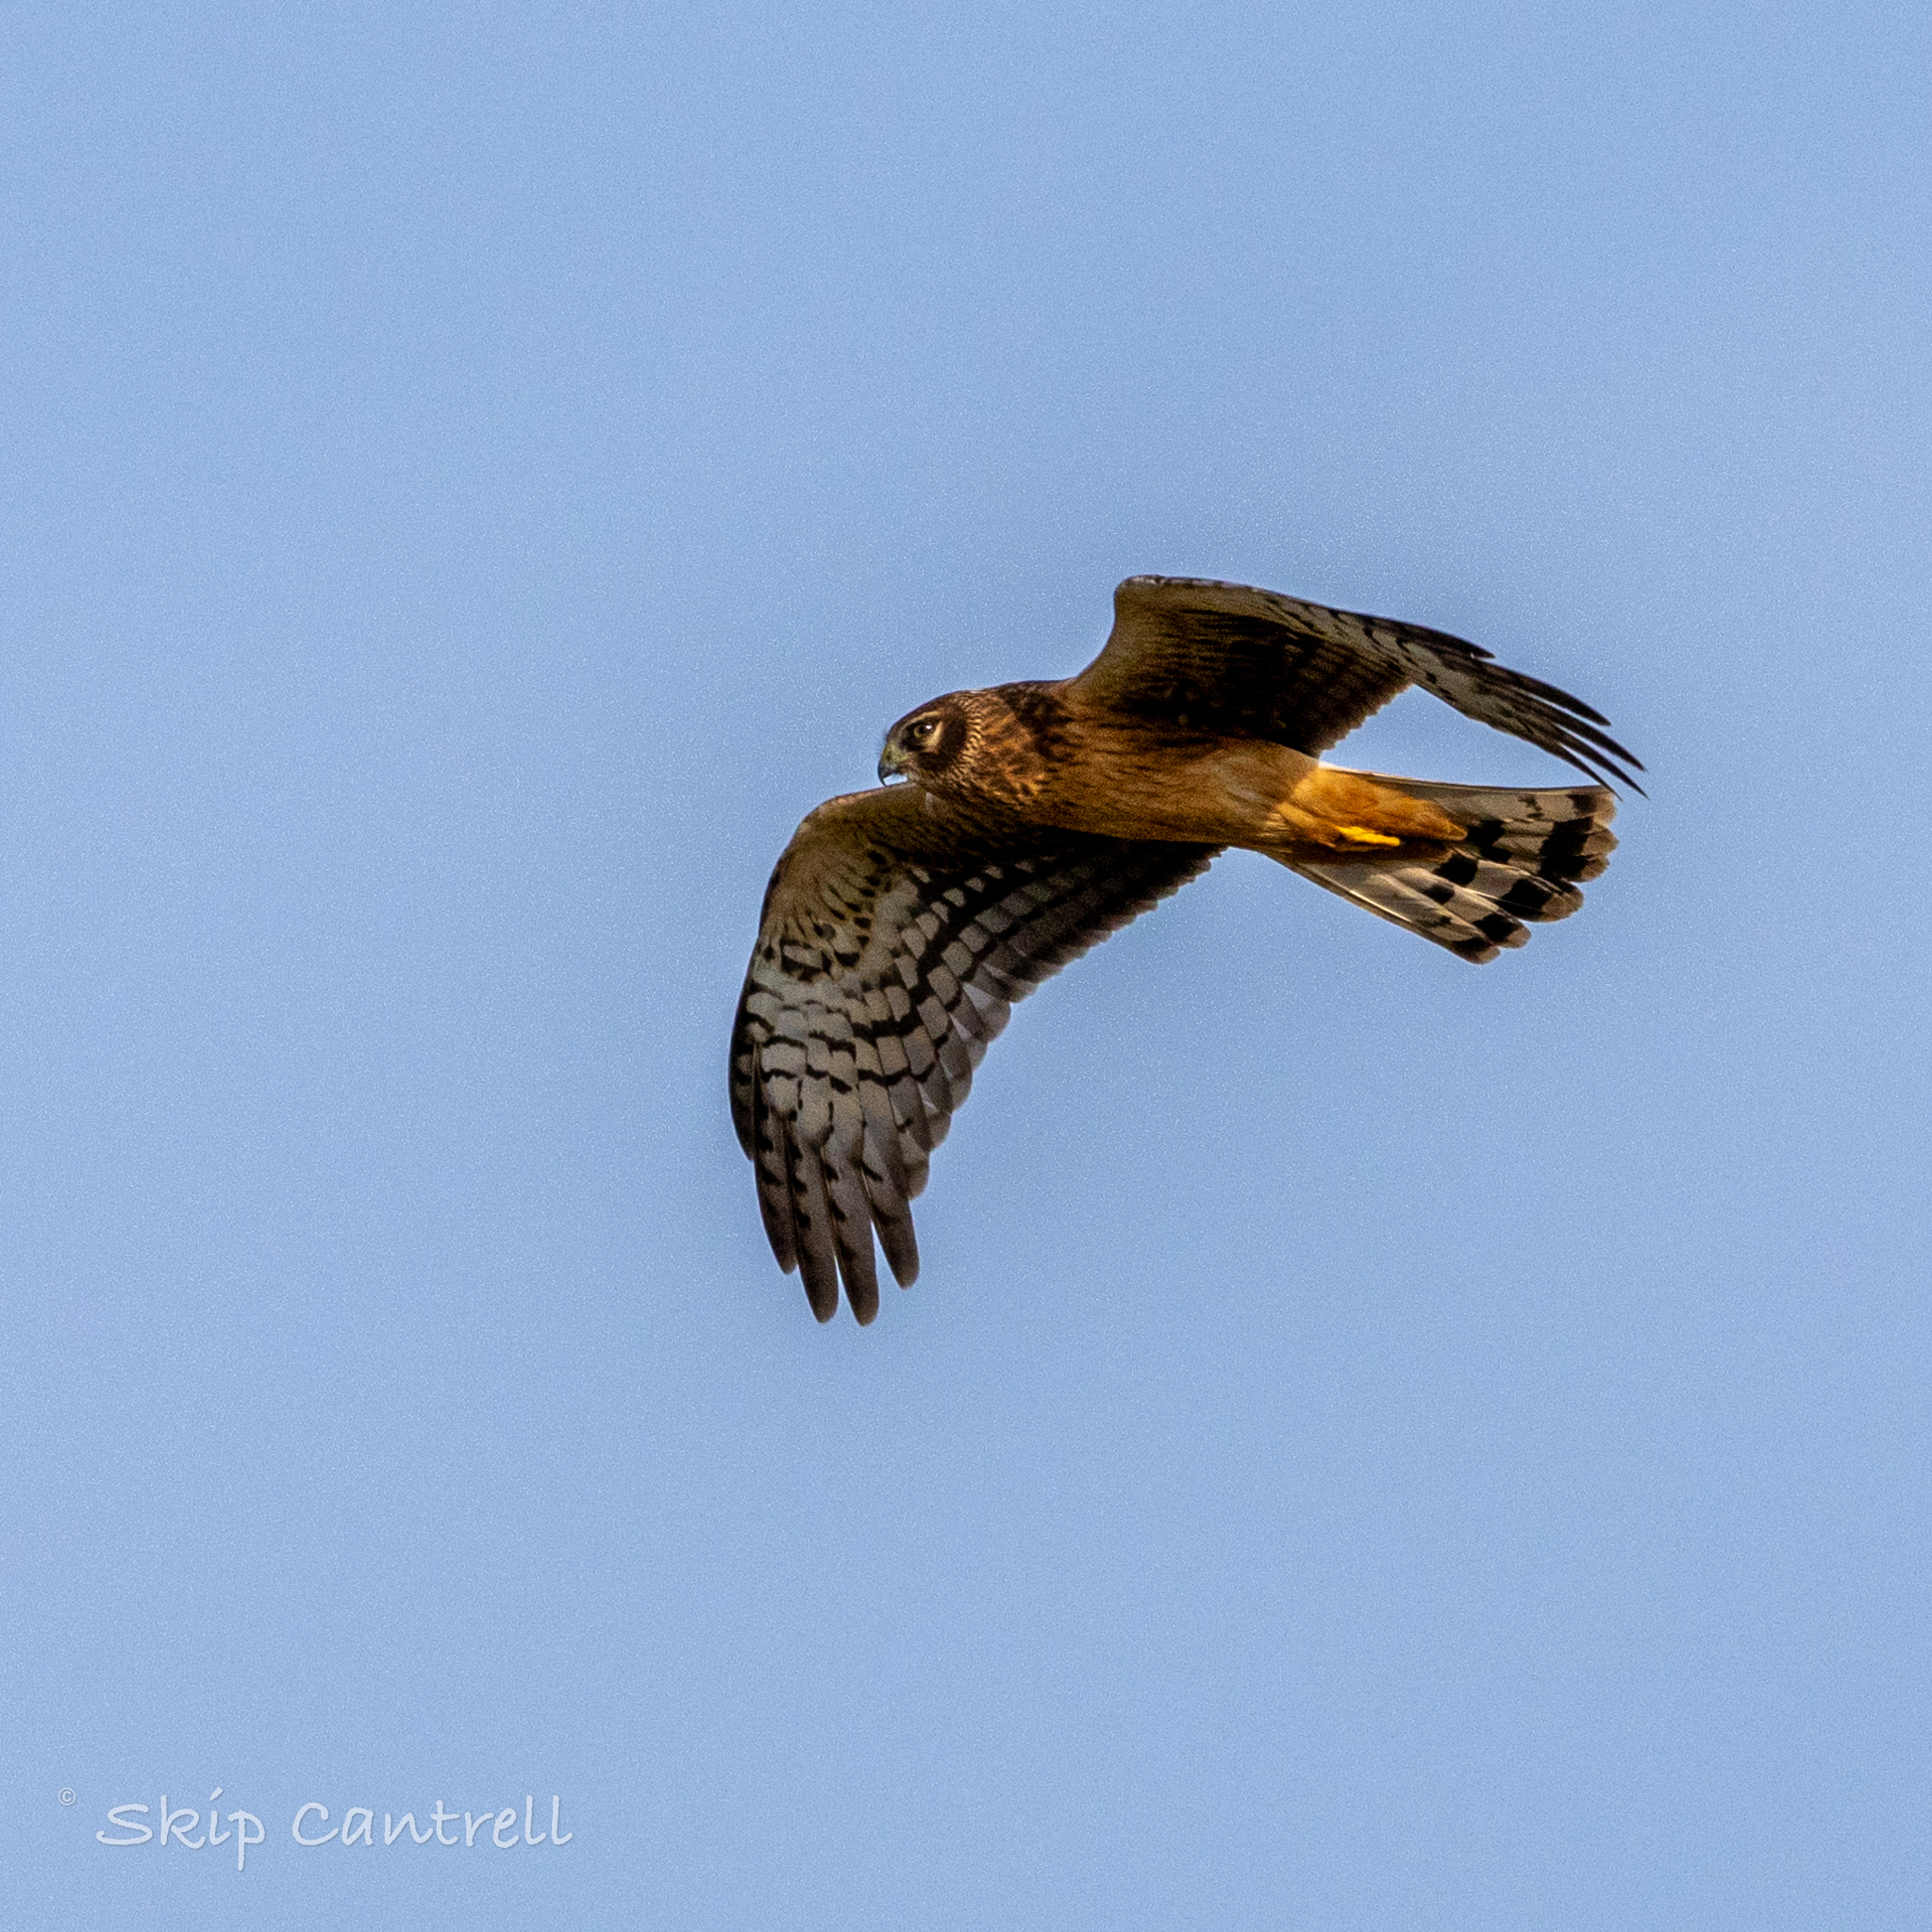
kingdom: Animalia
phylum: Chordata
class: Aves
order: Accipitriformes
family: Accipitridae
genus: Circus
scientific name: Circus cyaneus
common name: Hen harrier
